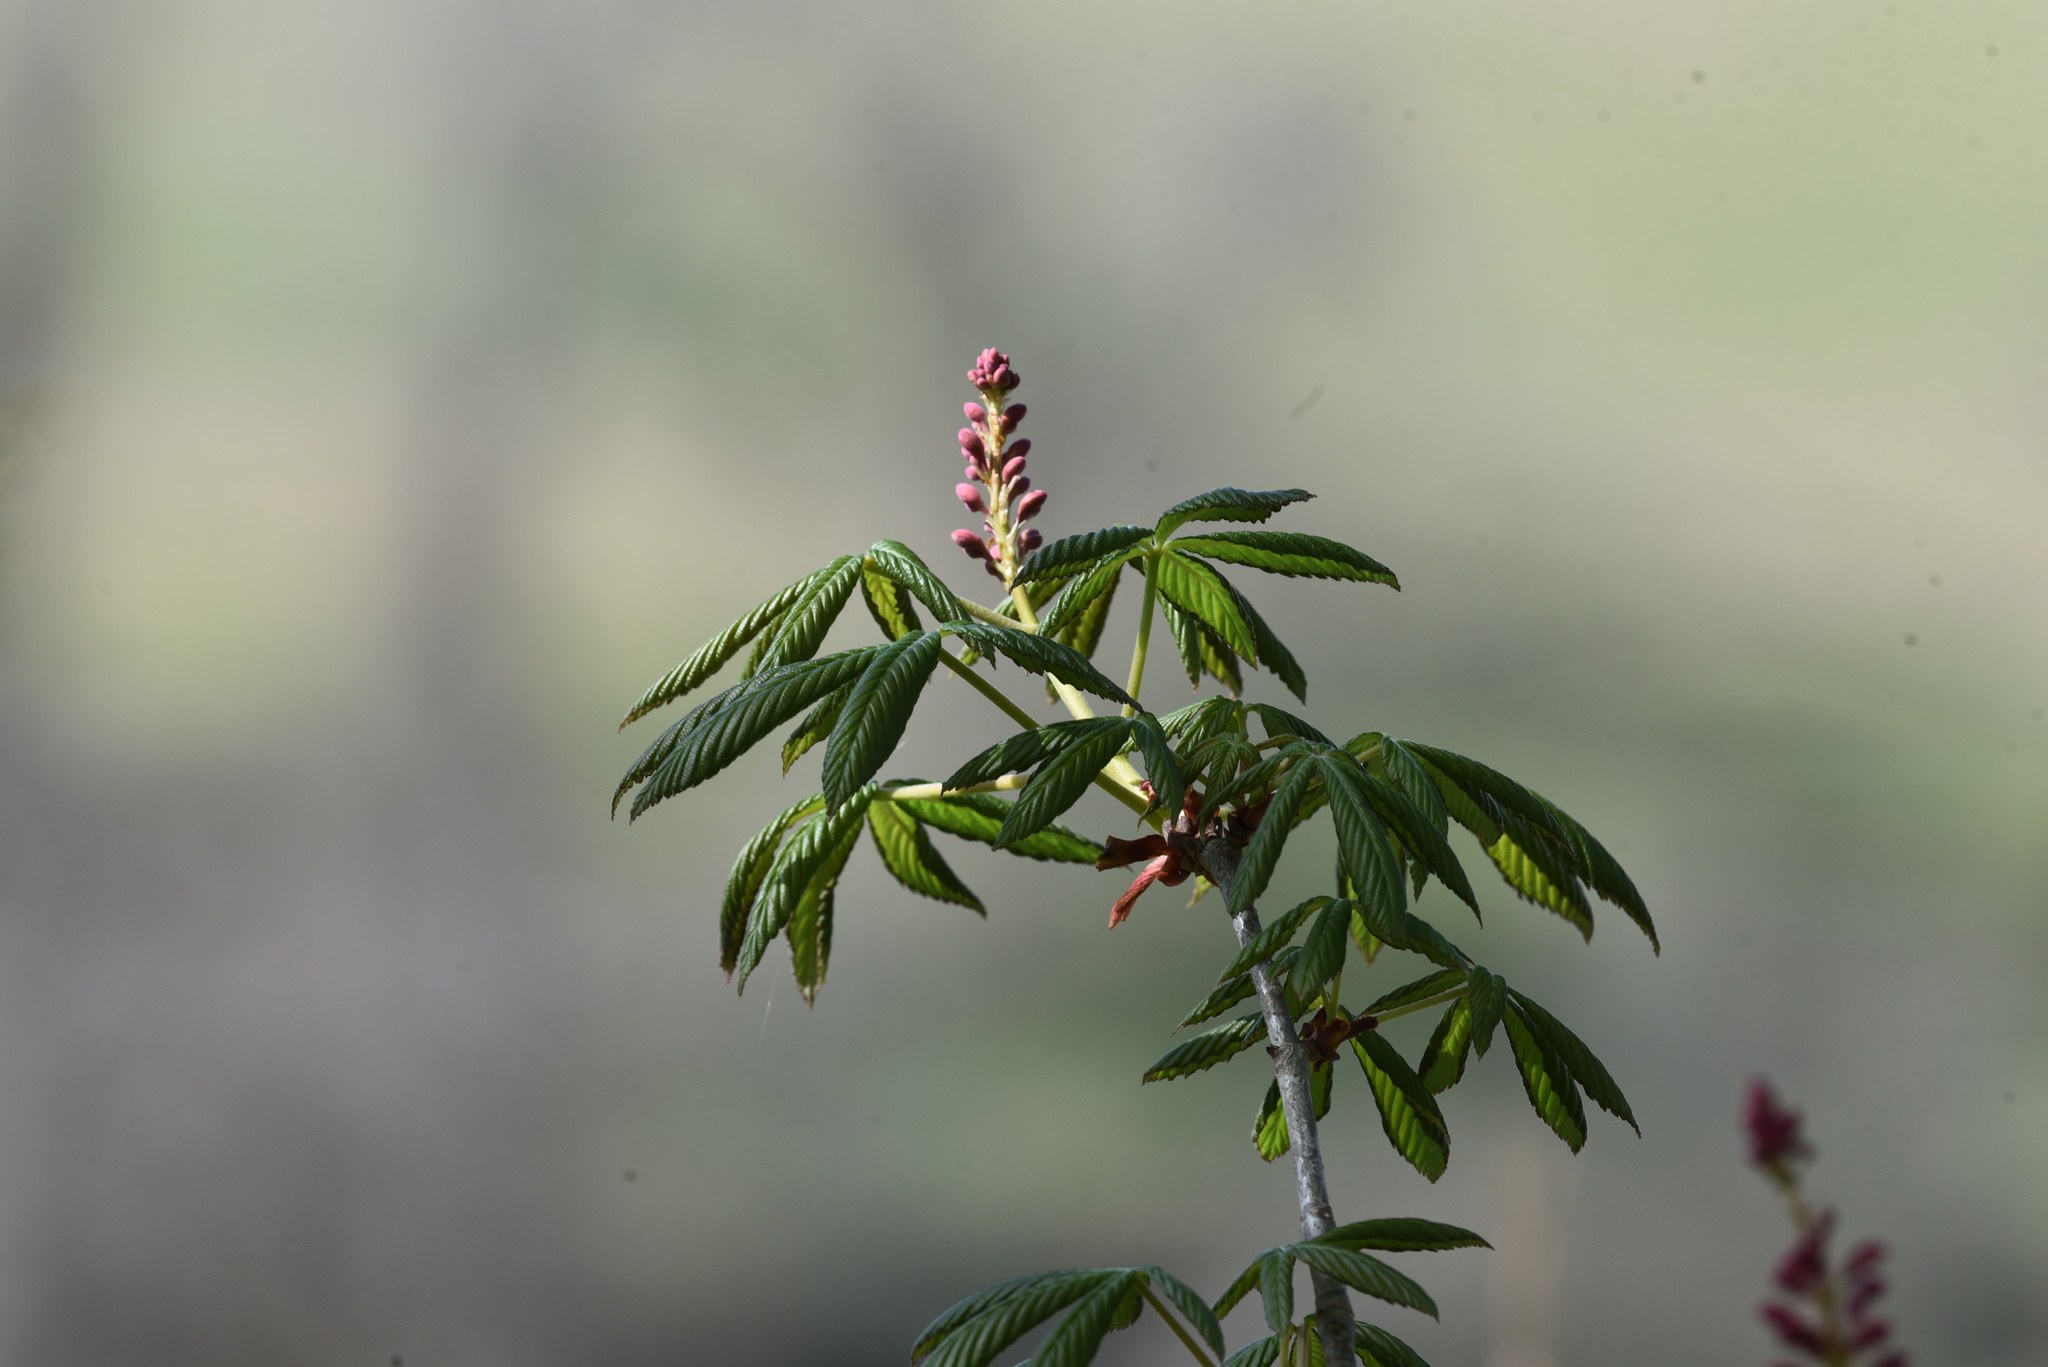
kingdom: Plantae
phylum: Tracheophyta
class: Magnoliopsida
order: Sapindales
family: Sapindaceae
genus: Aesculus
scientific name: Aesculus pavia
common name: Red buckeye
